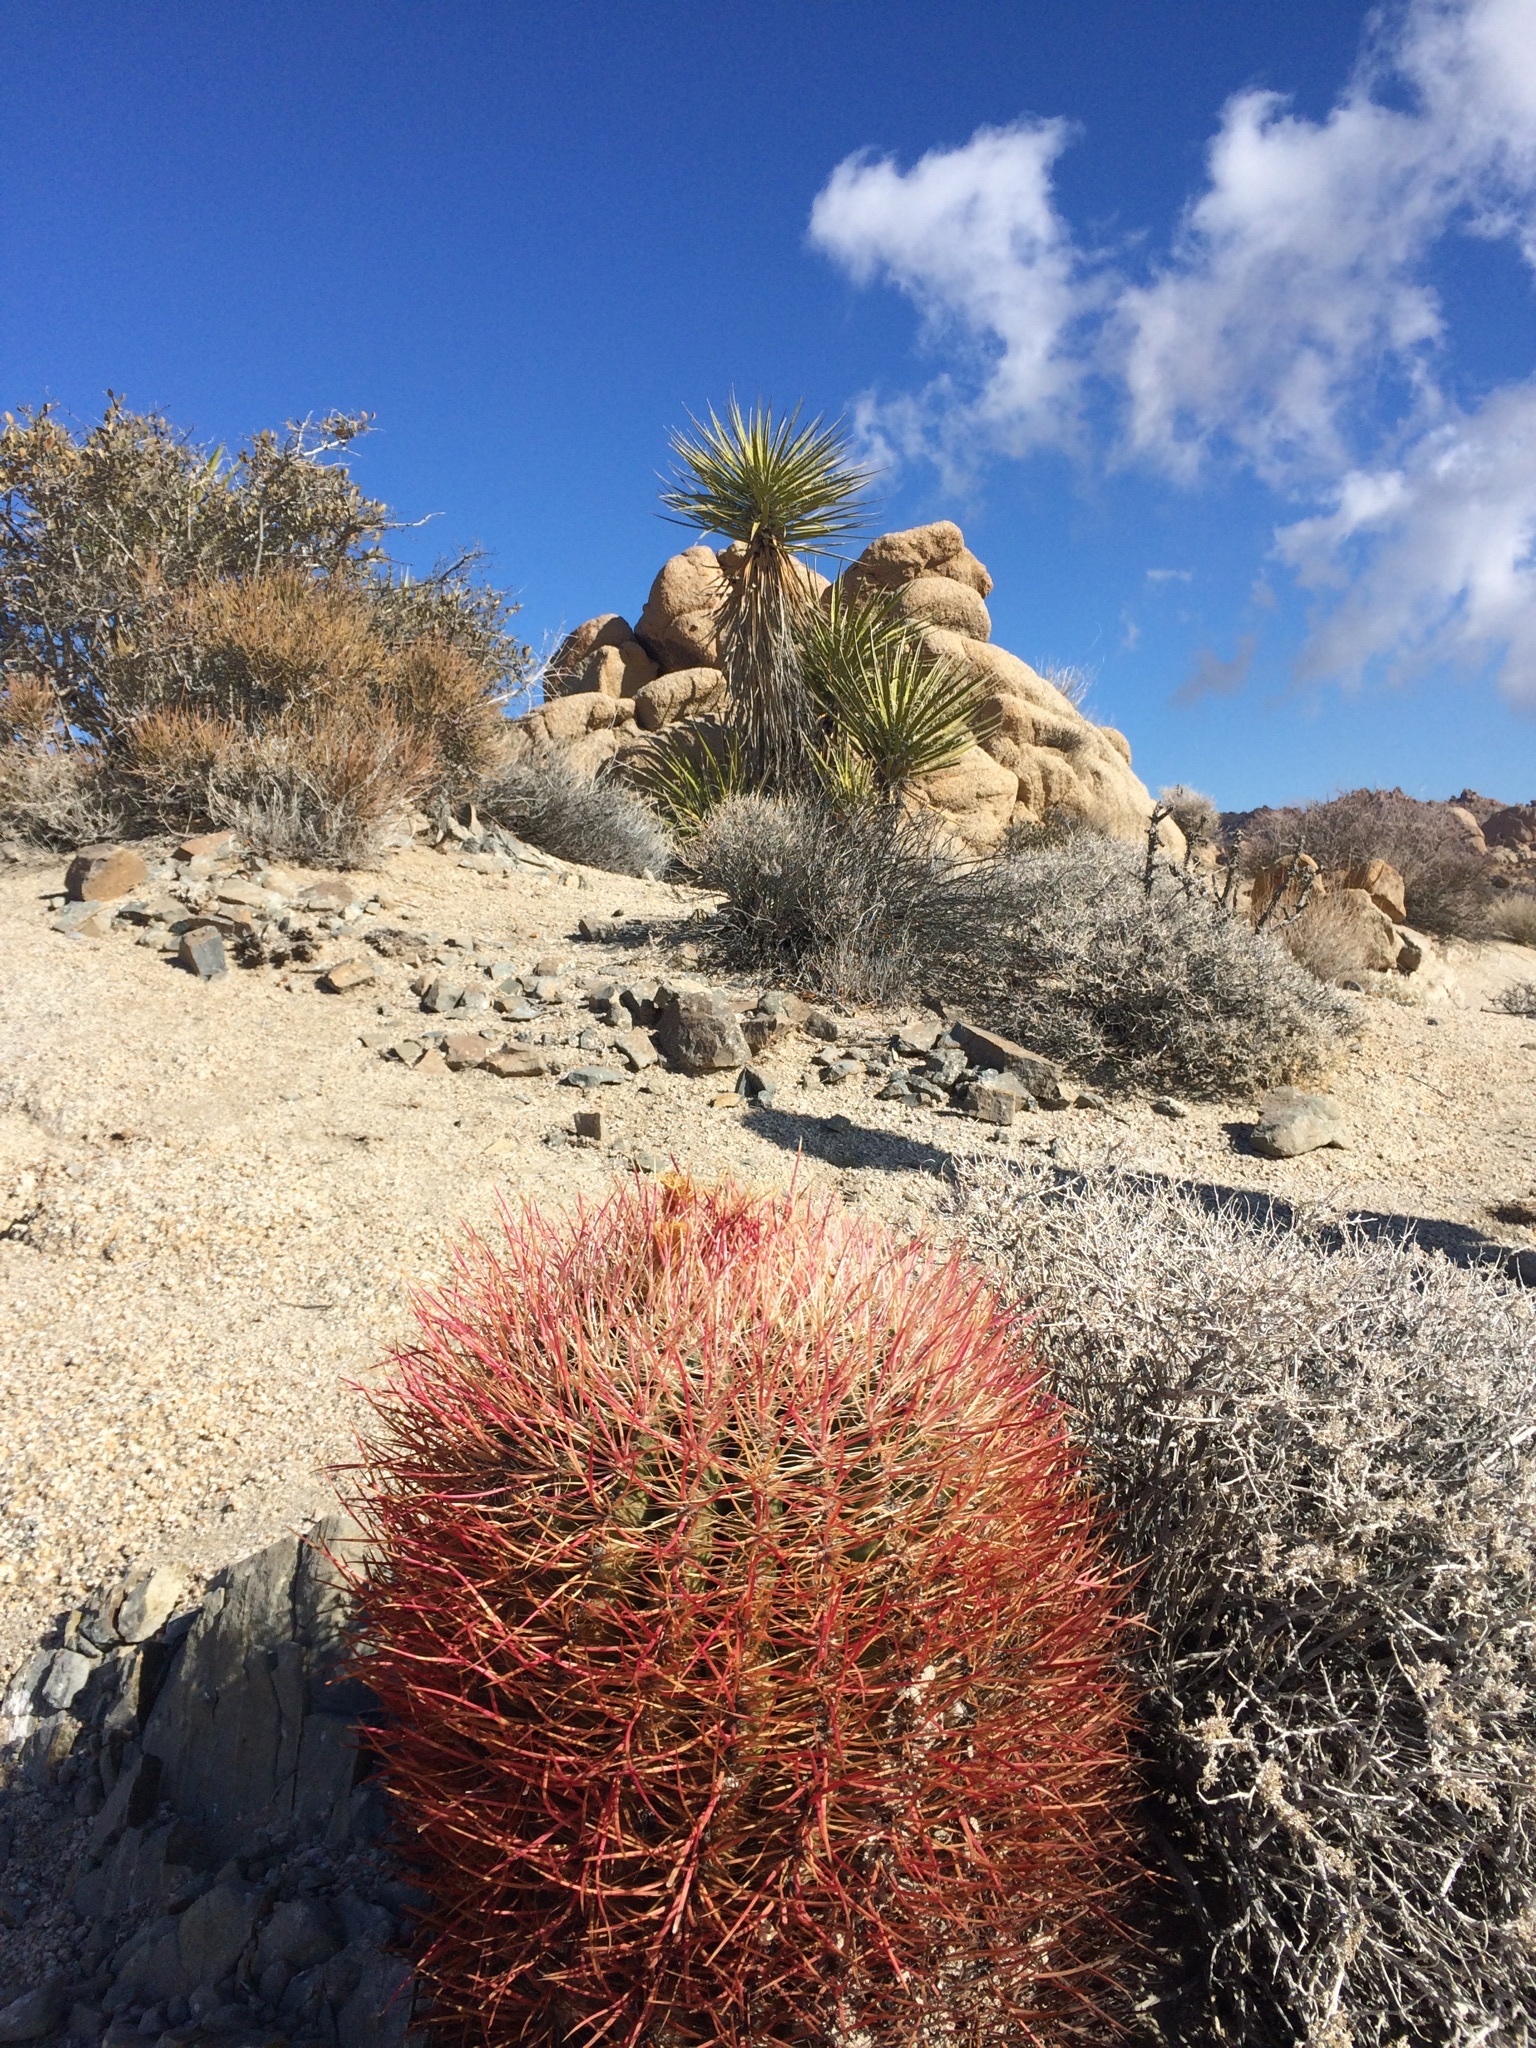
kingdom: Plantae
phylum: Tracheophyta
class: Magnoliopsida
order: Caryophyllales
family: Cactaceae
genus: Ferocactus
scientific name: Ferocactus cylindraceus
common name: California barrel cactus
